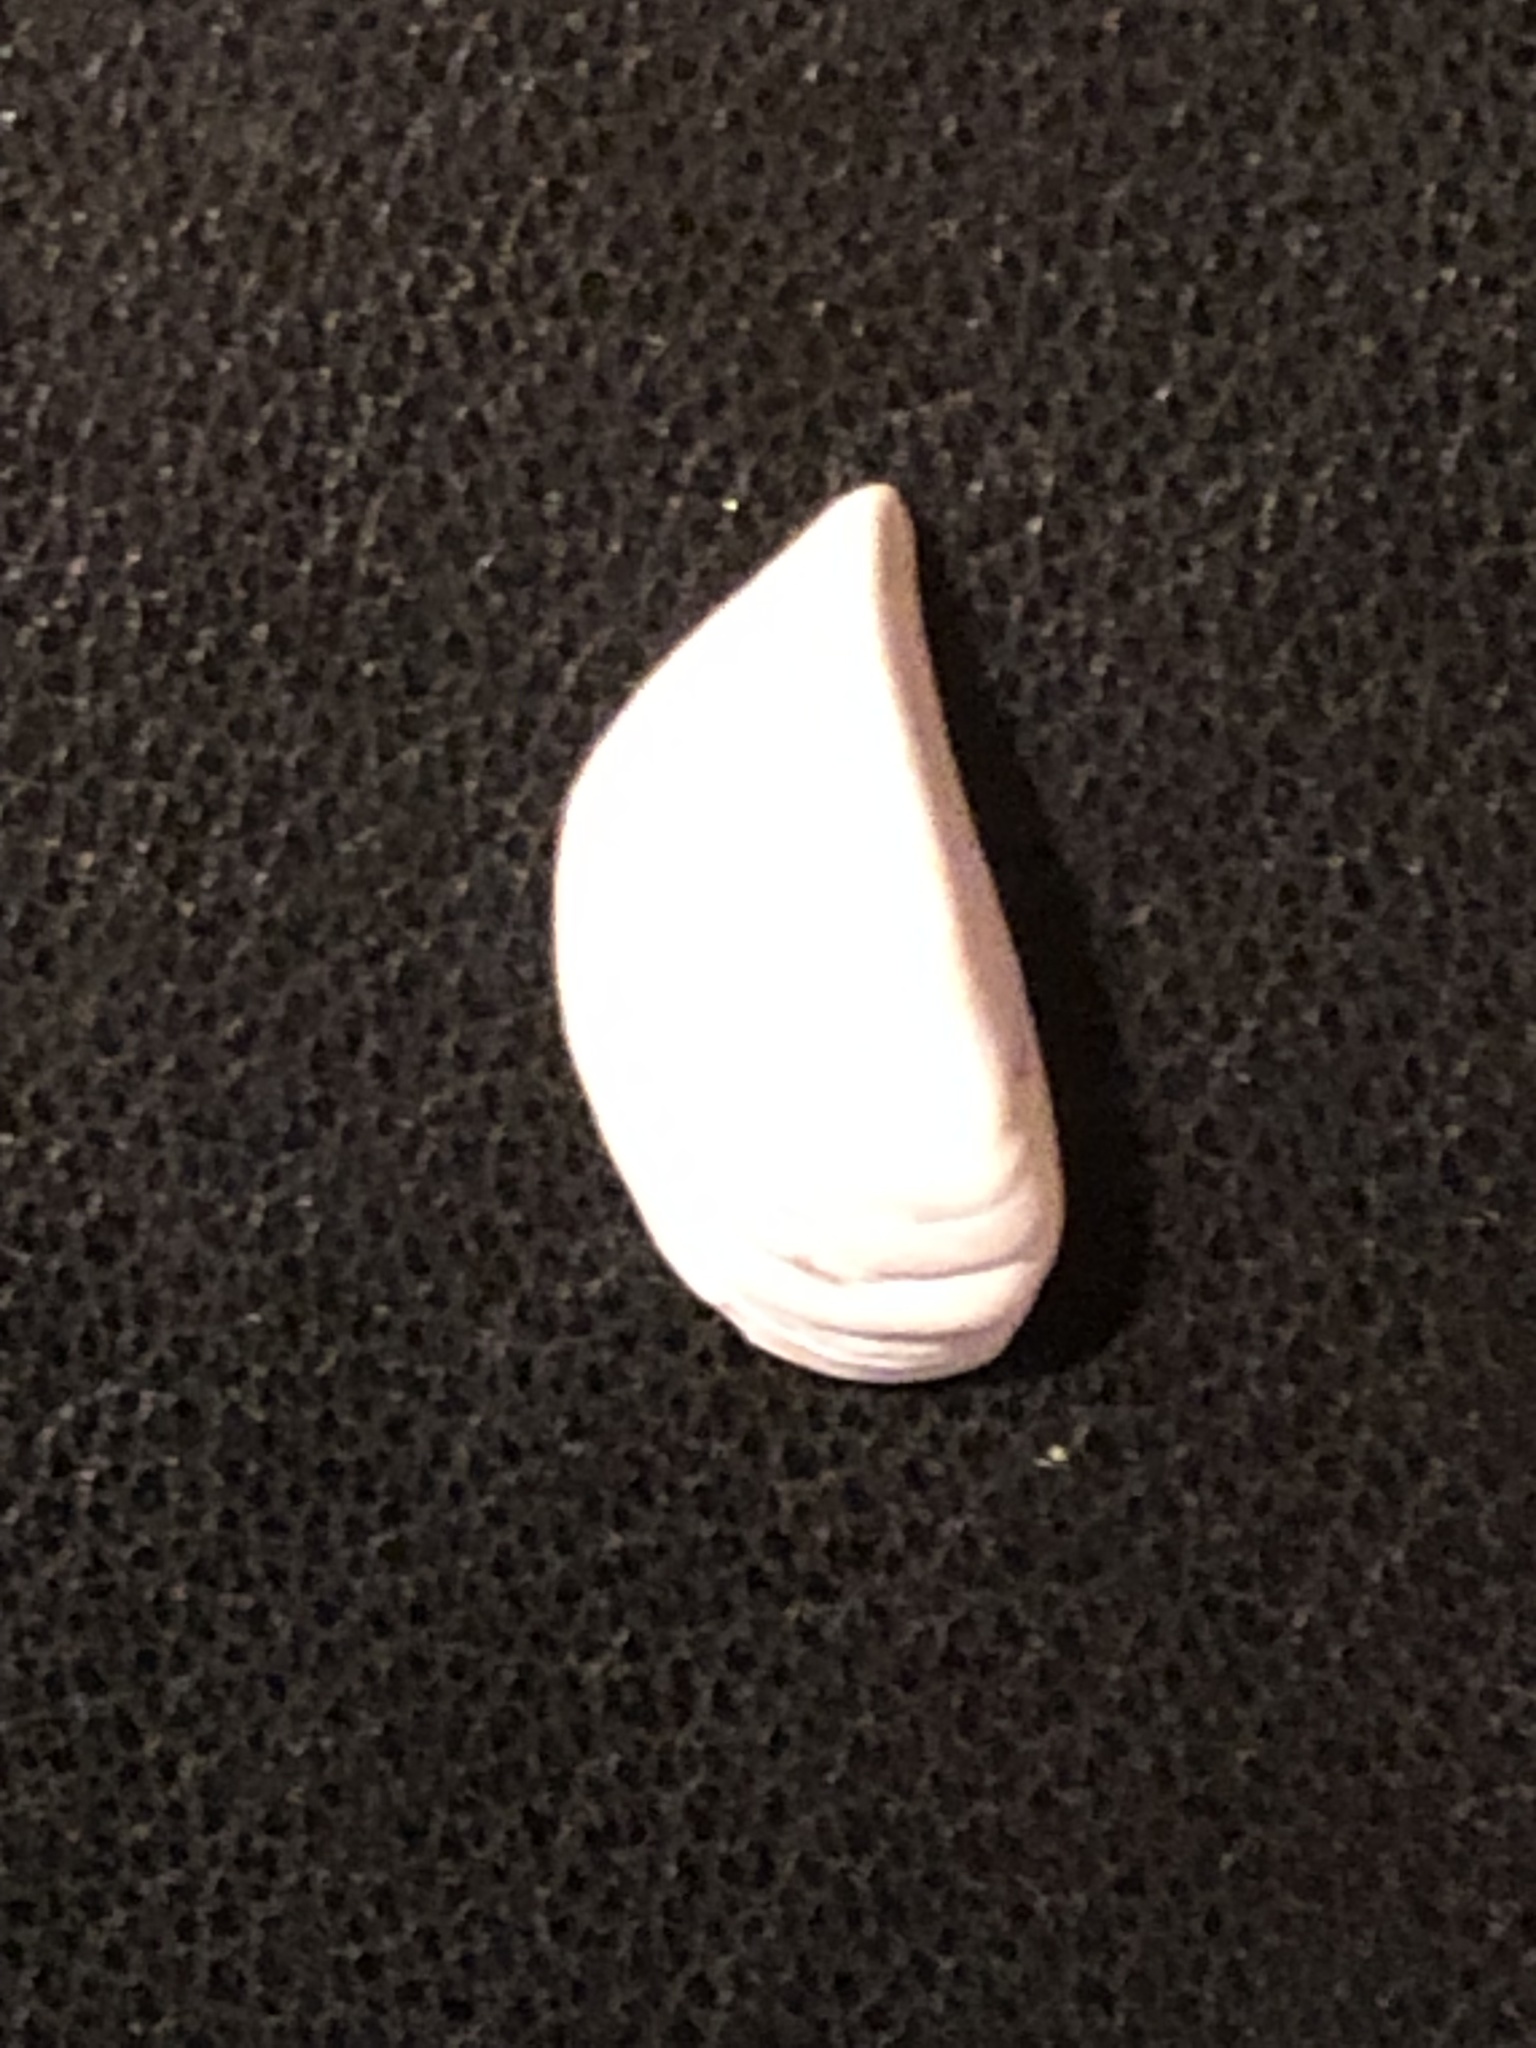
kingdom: Animalia
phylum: Mollusca
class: Bivalvia
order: Myida
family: Dreissenidae
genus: Dreissena
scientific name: Dreissena polymorpha
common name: Zebra mussel
